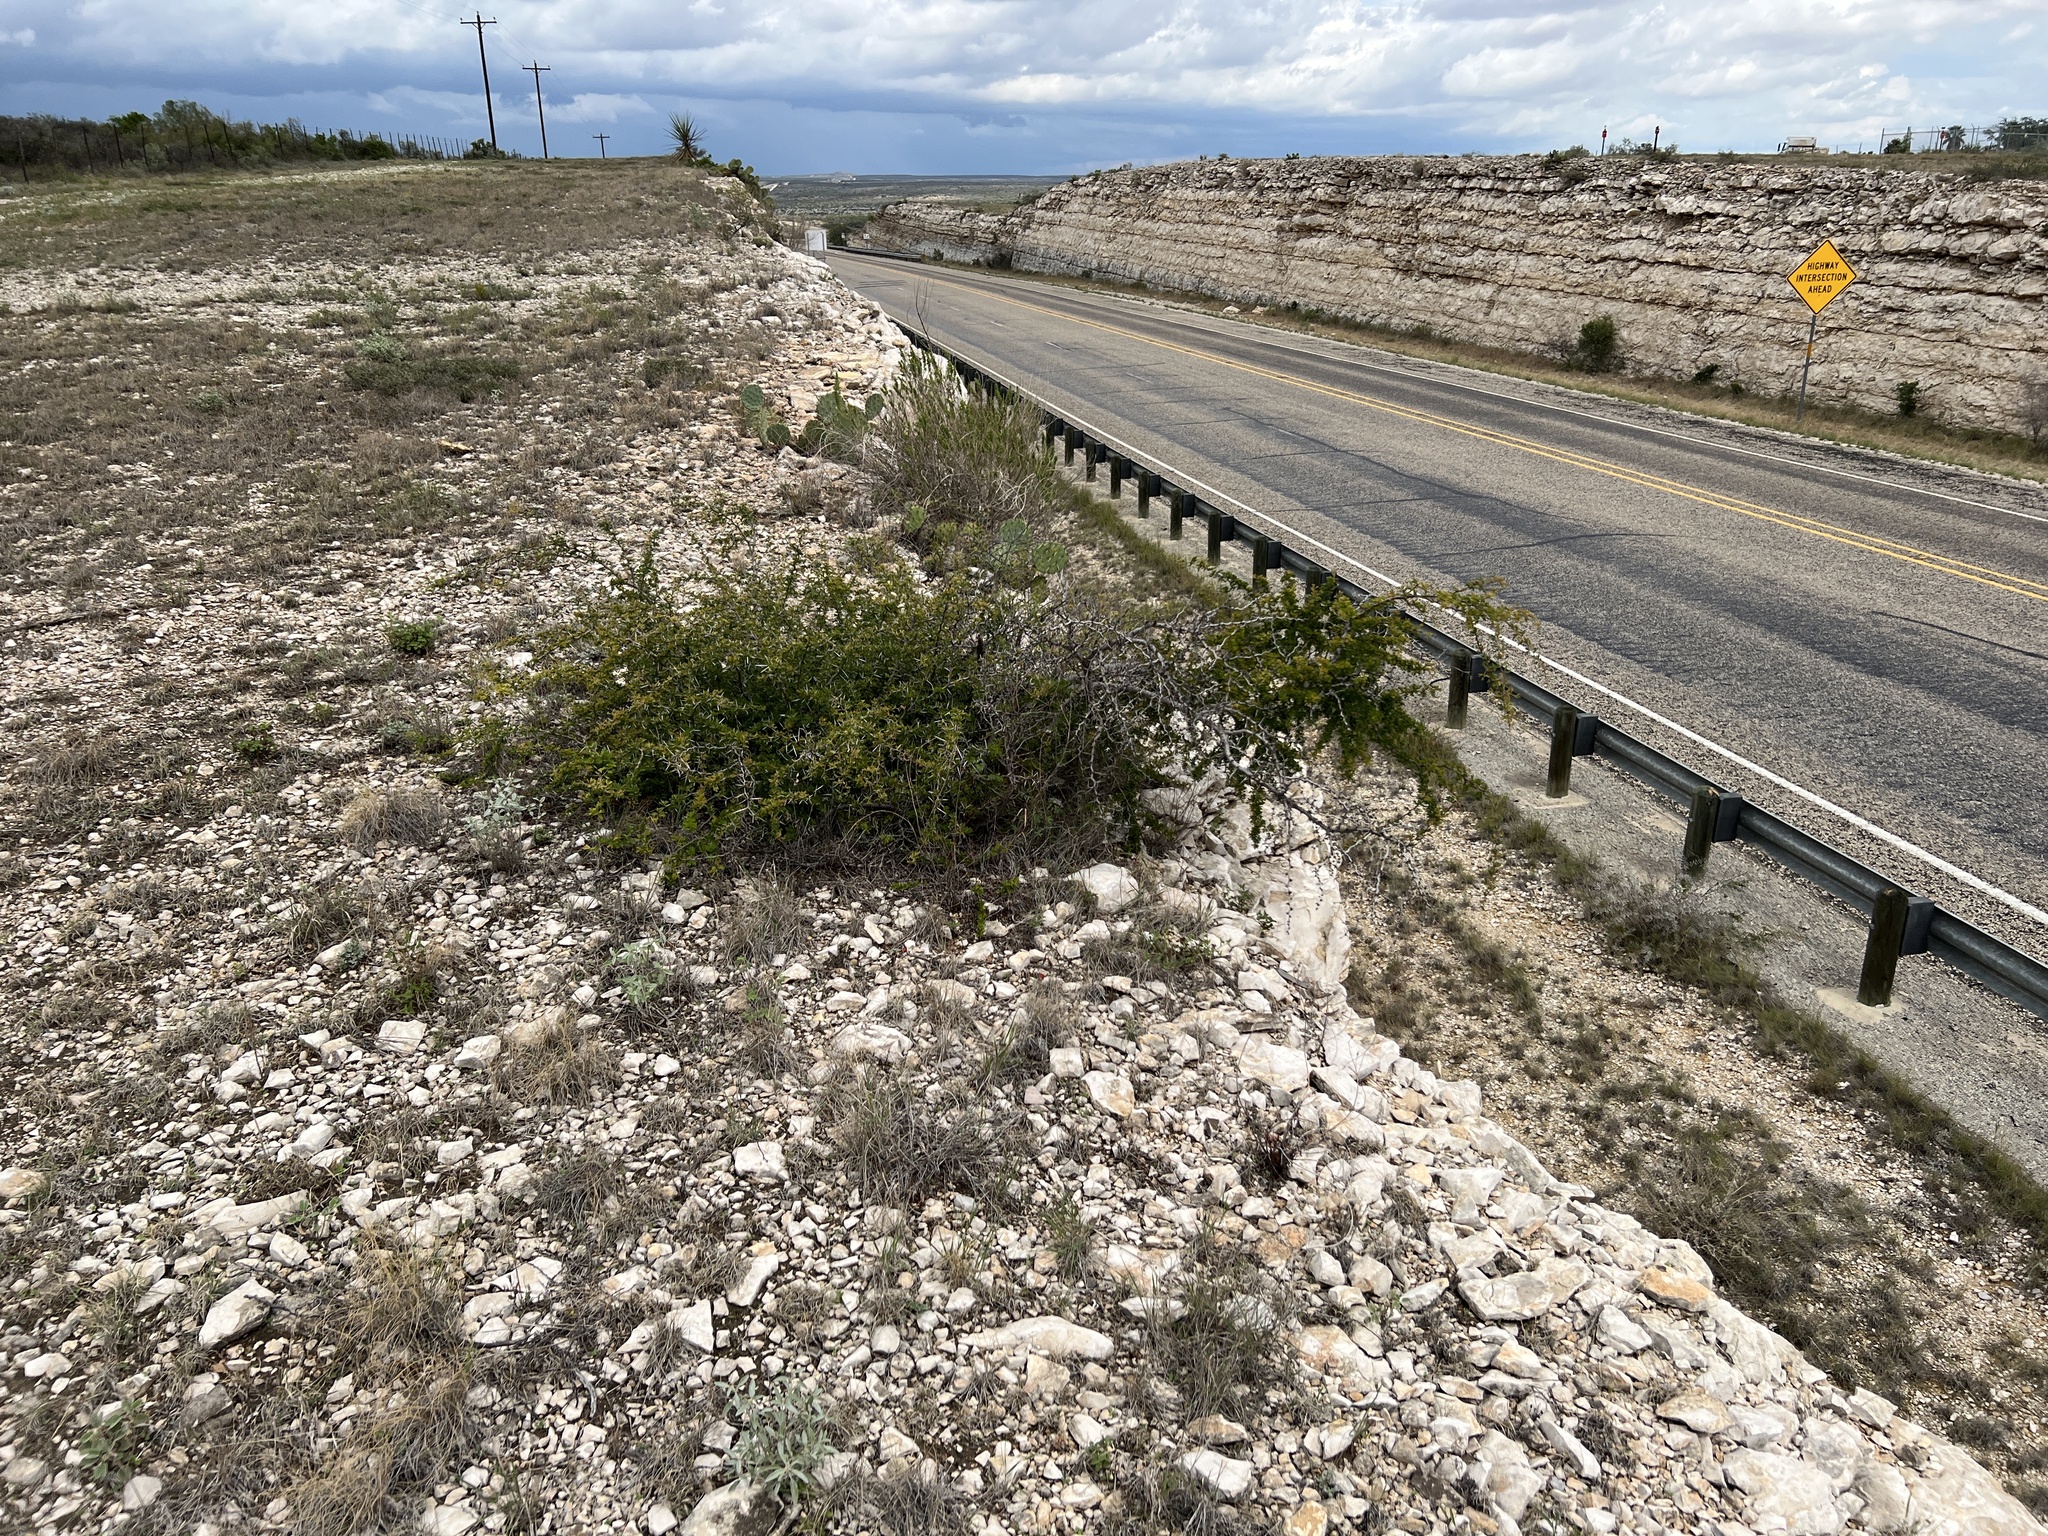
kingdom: Plantae
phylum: Tracheophyta
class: Magnoliopsida
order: Fabales
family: Fabaceae
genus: Vachellia
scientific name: Vachellia rigidula
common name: Blackbrush
